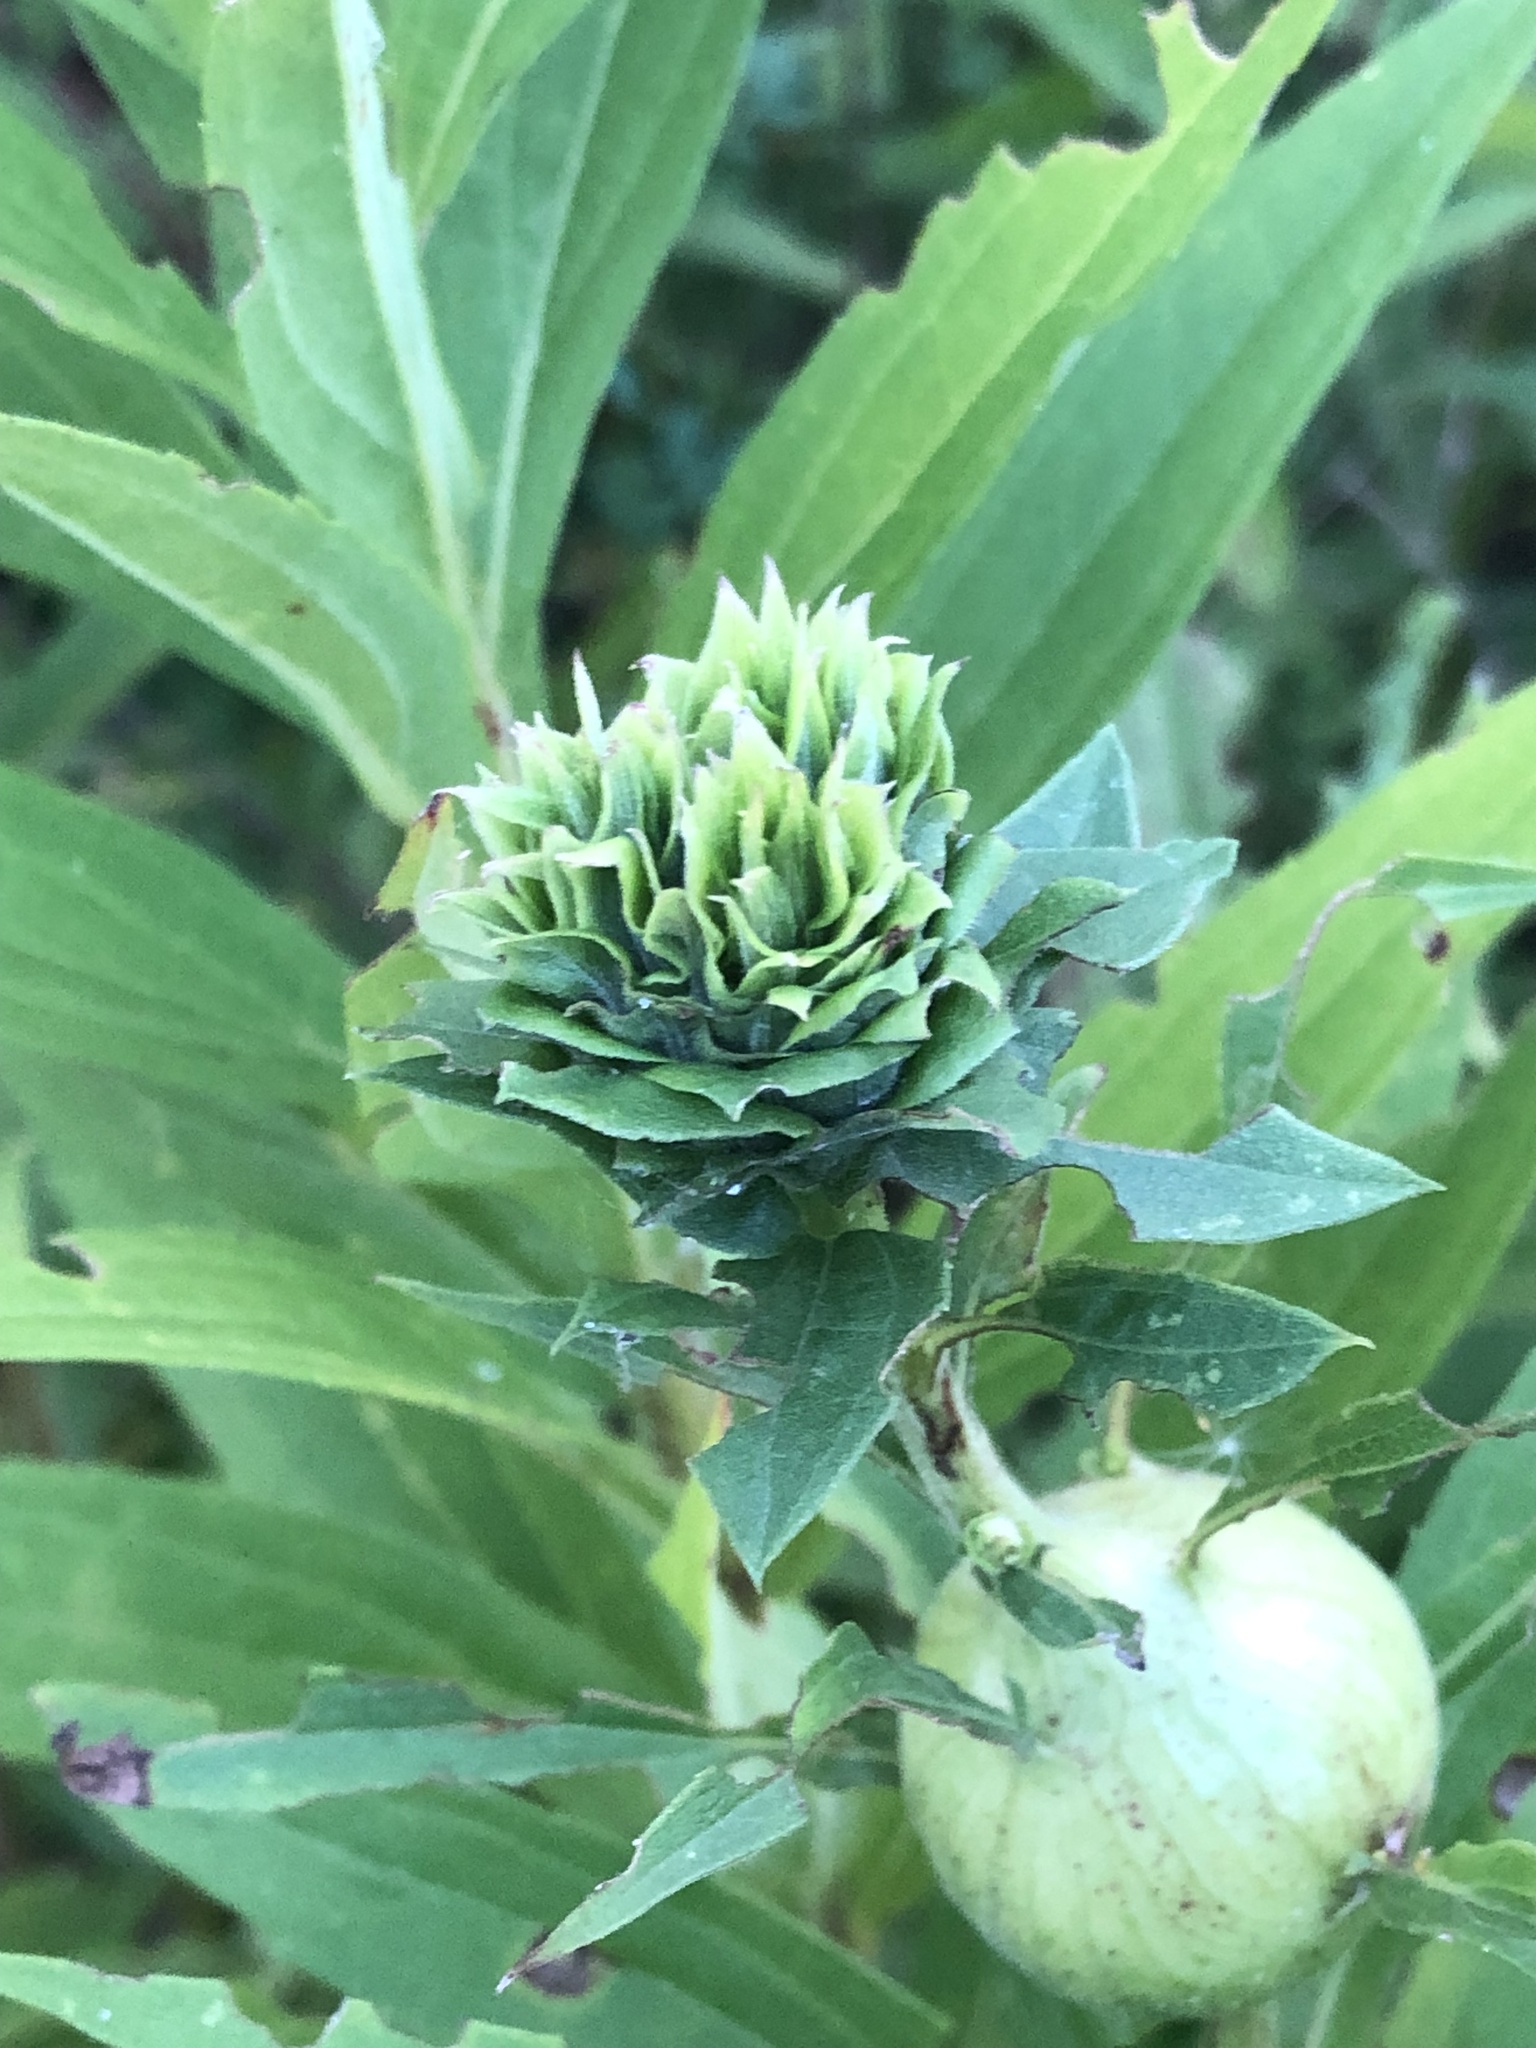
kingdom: Animalia
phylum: Arthropoda
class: Insecta
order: Diptera
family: Cecidomyiidae
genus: Rhopalomyia
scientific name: Rhopalomyia solidaginis
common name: Goldenrod bunch gall midge
